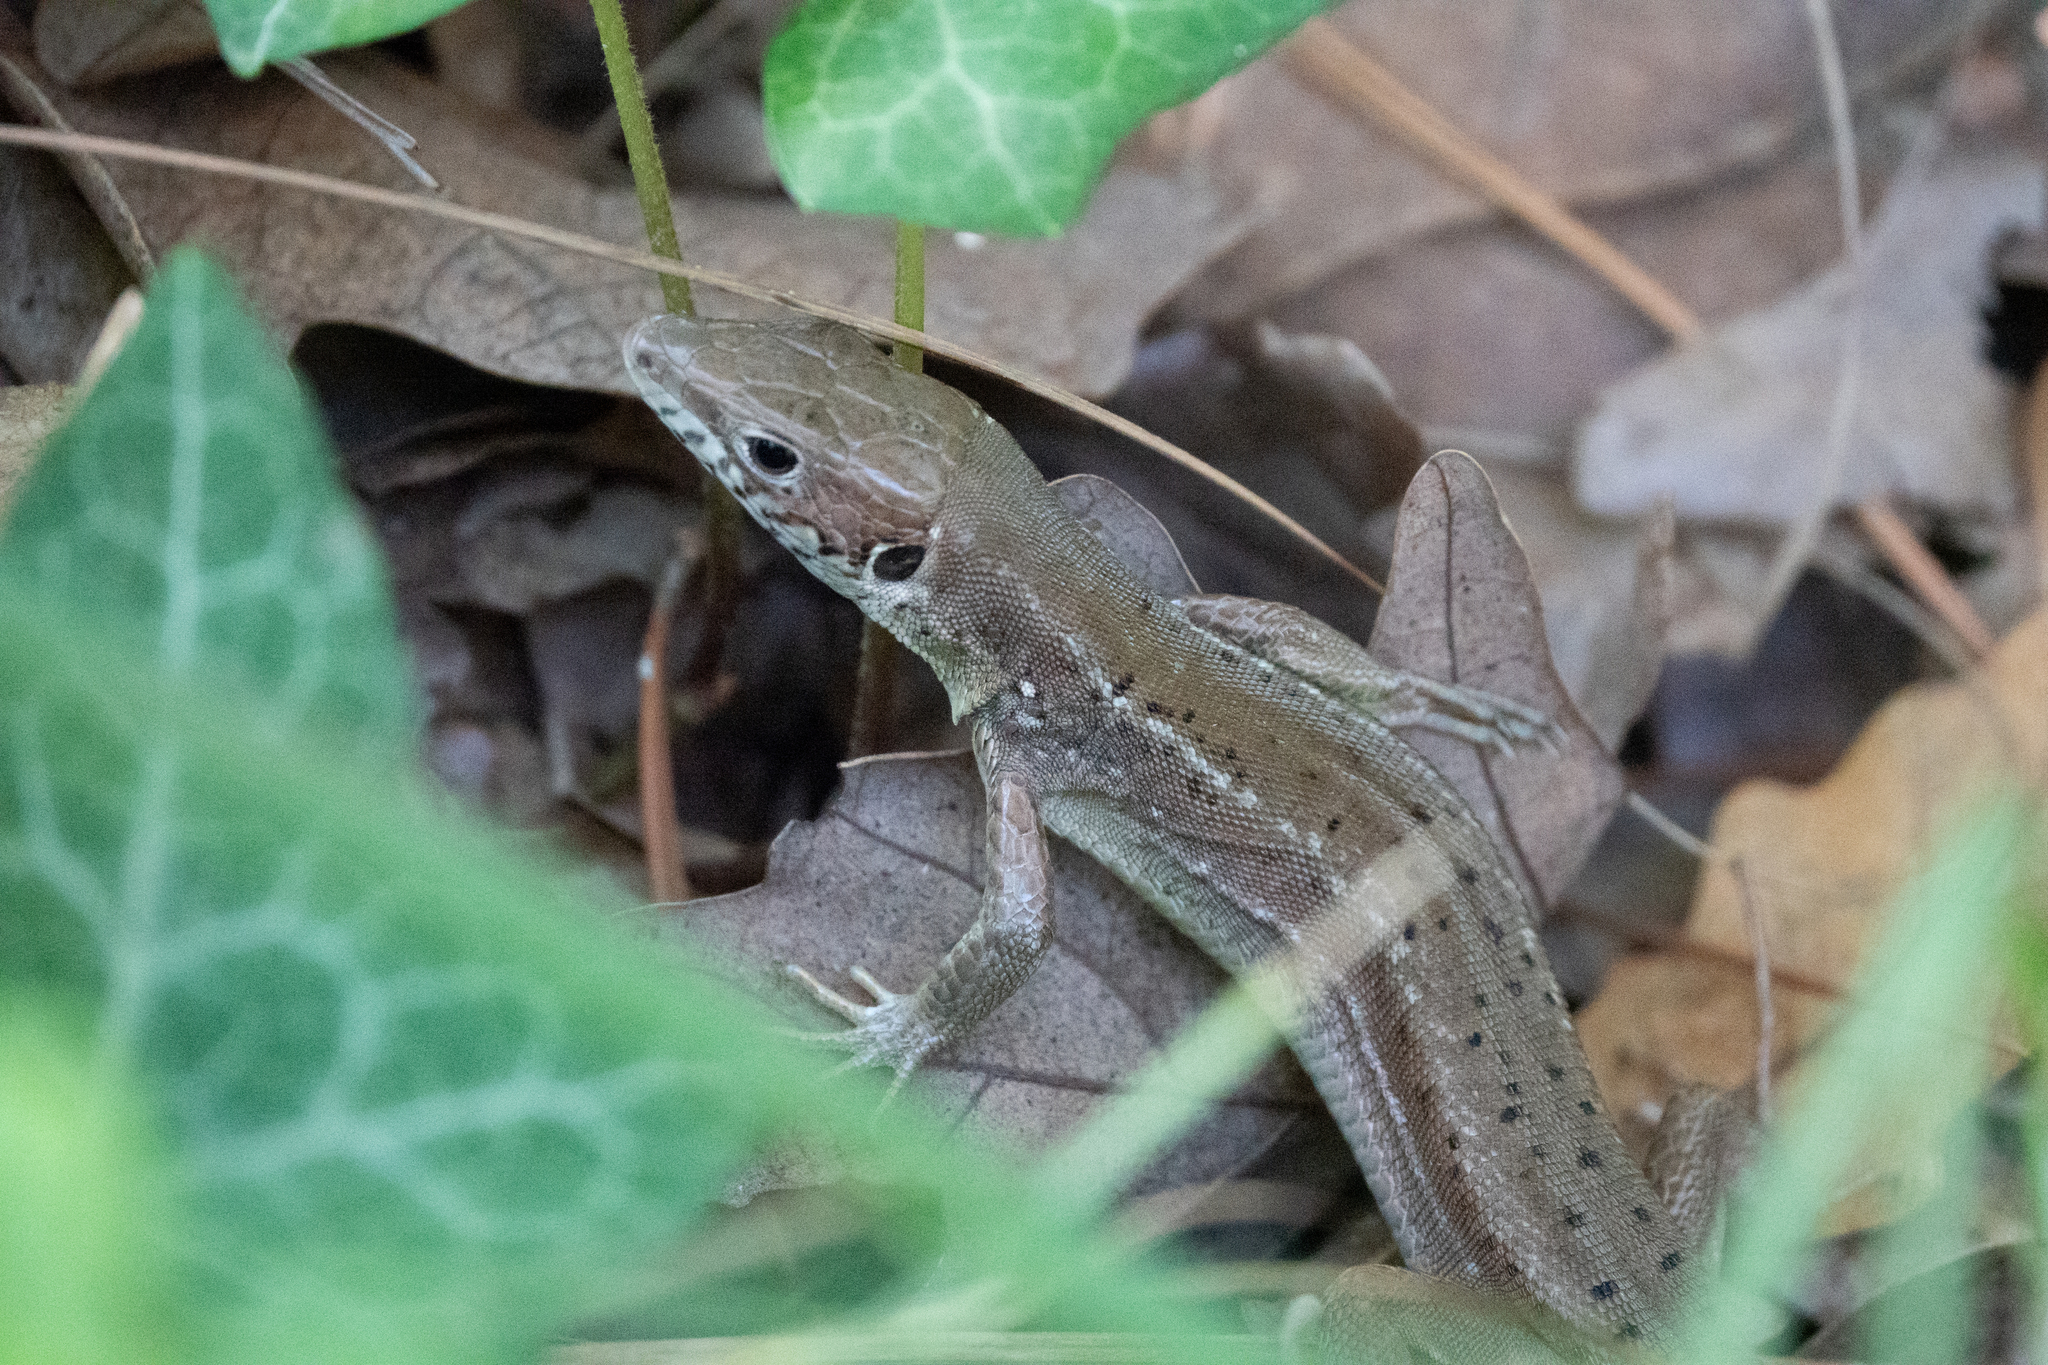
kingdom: Animalia
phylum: Chordata
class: Squamata
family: Lacertidae
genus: Lacerta
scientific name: Lacerta viridis
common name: European green lizard
